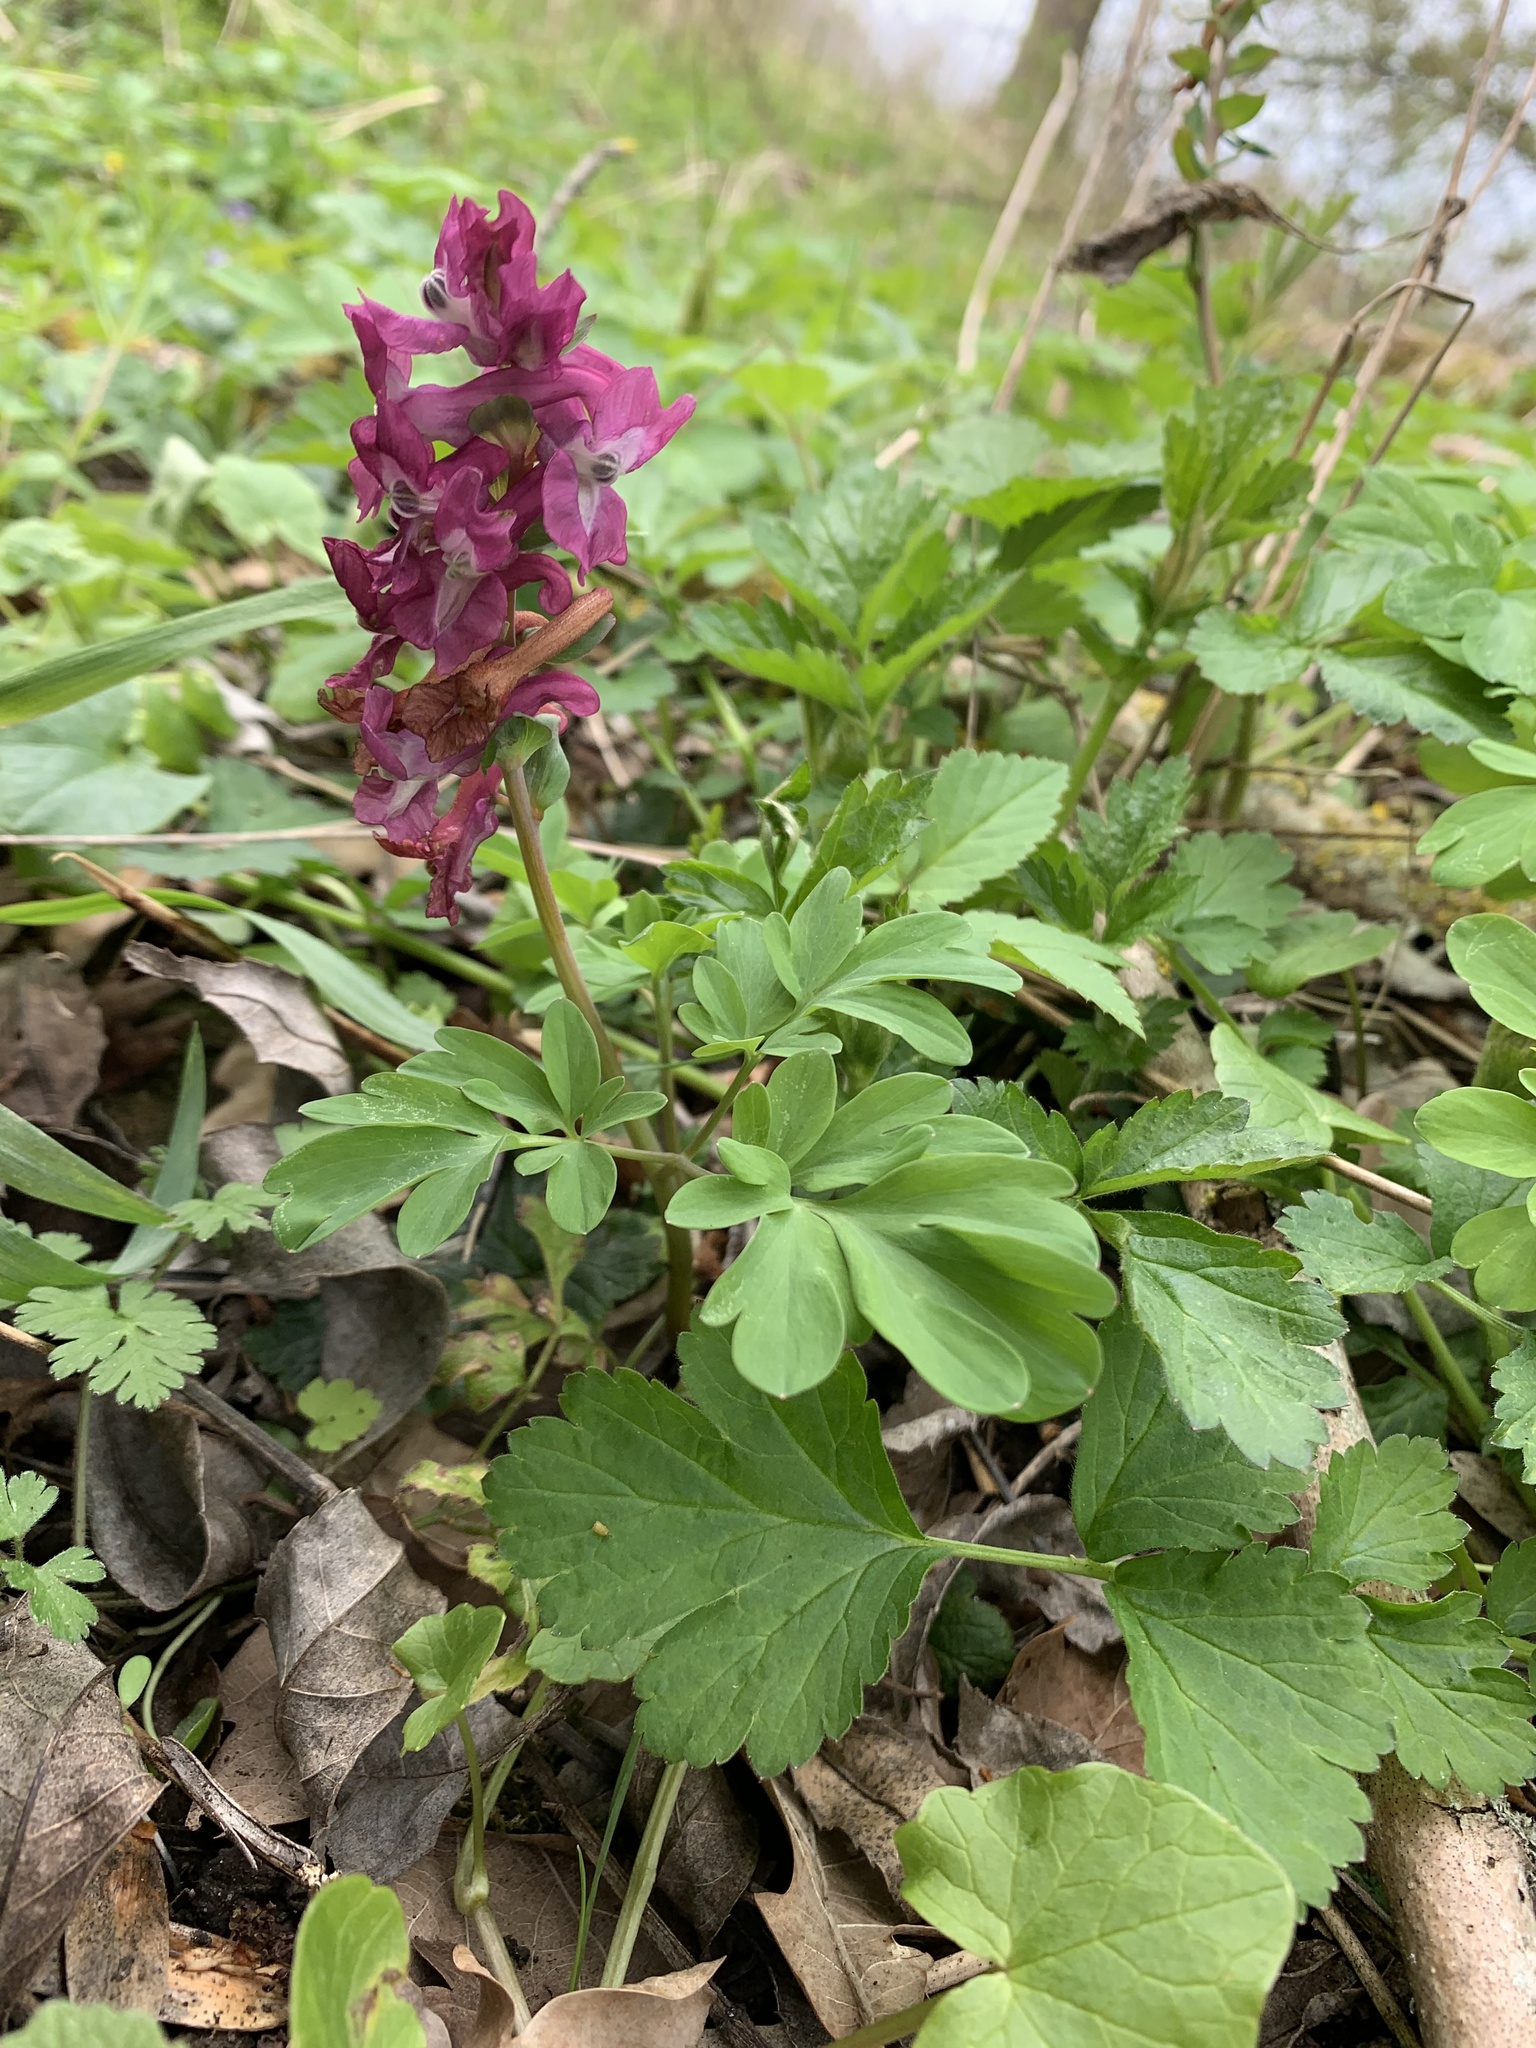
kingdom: Plantae
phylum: Tracheophyta
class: Magnoliopsida
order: Ranunculales
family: Papaveraceae
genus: Corydalis
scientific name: Corydalis cava
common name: Hollowroot
